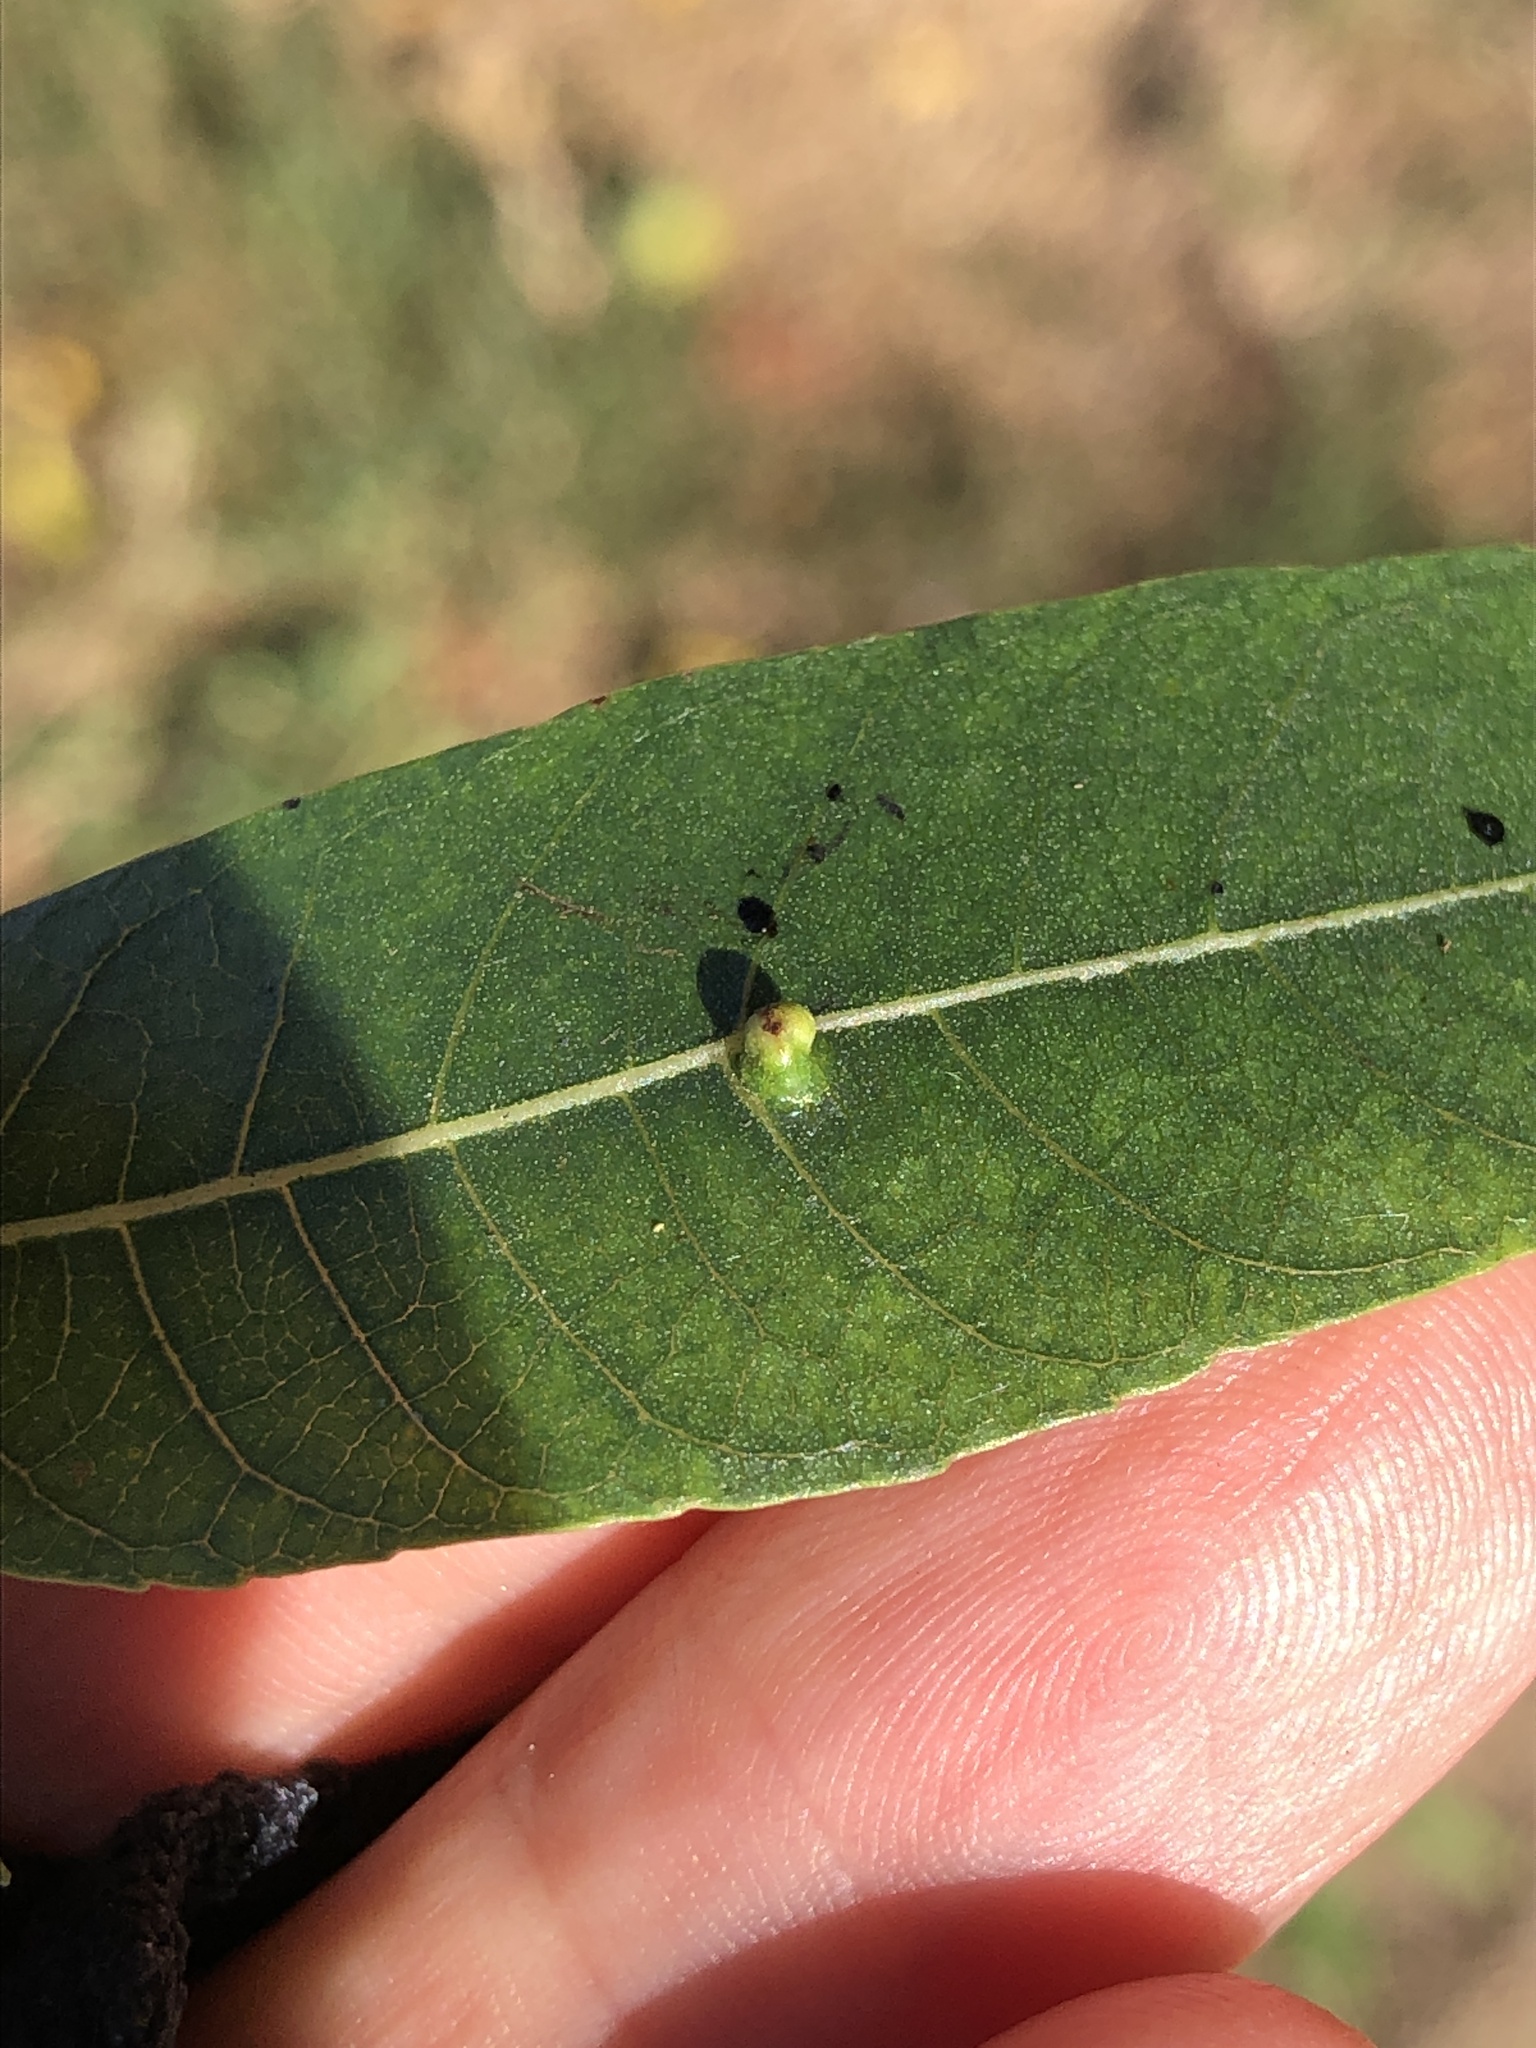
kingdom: Animalia
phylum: Arthropoda
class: Arachnida
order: Trombidiformes
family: Eriophyidae
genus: Aceria
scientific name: Aceria brachytarsus
